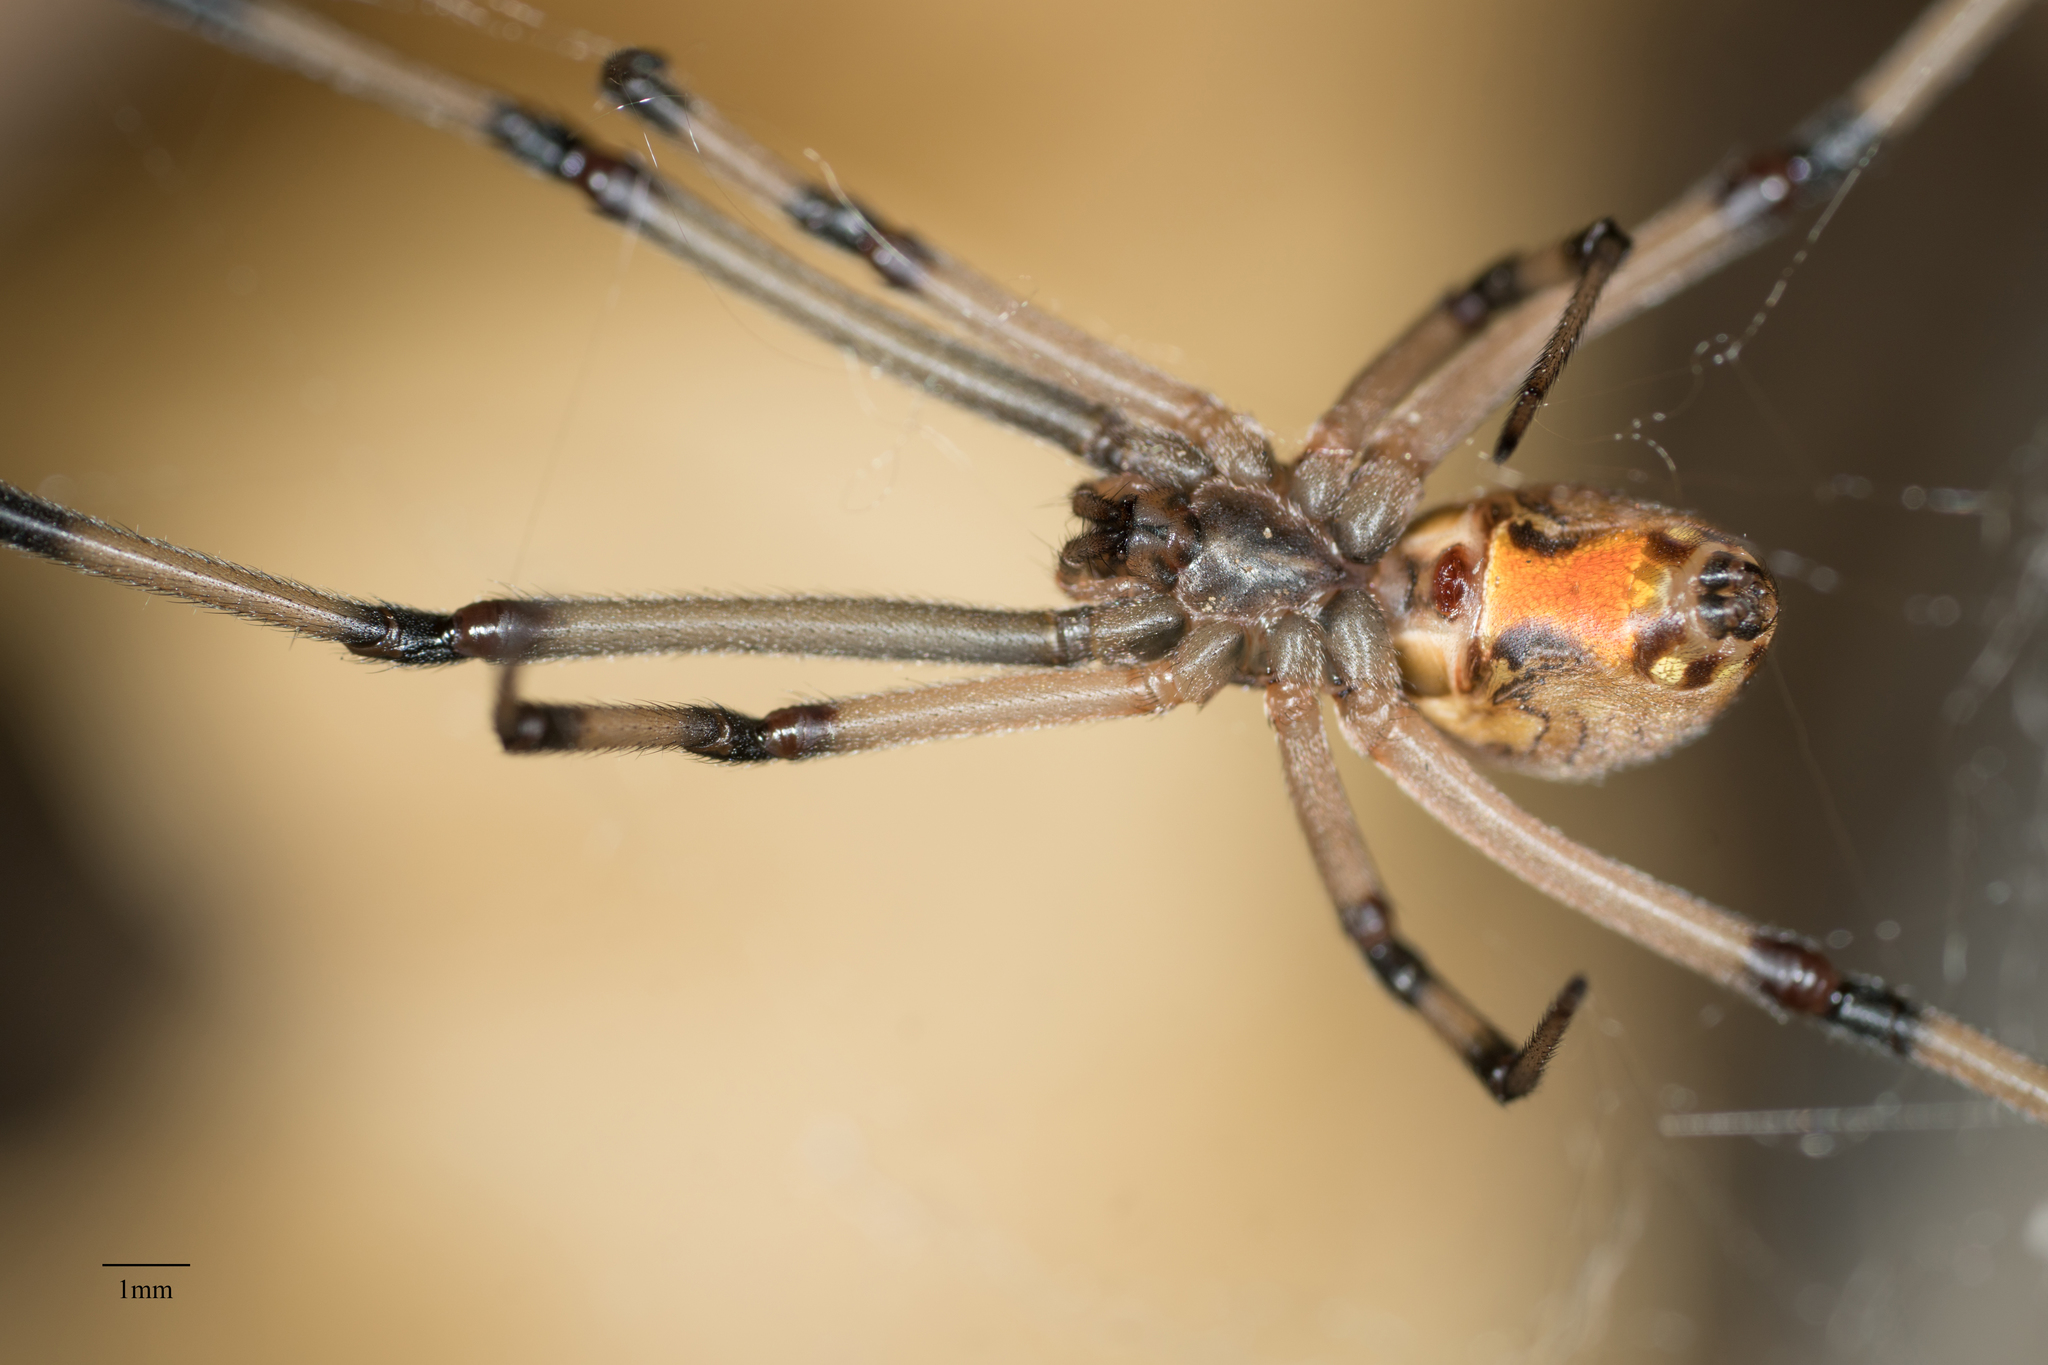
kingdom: Animalia
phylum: Arthropoda
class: Arachnida
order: Araneae
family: Theridiidae
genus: Latrodectus
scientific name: Latrodectus geometricus
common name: Brown widow spider
